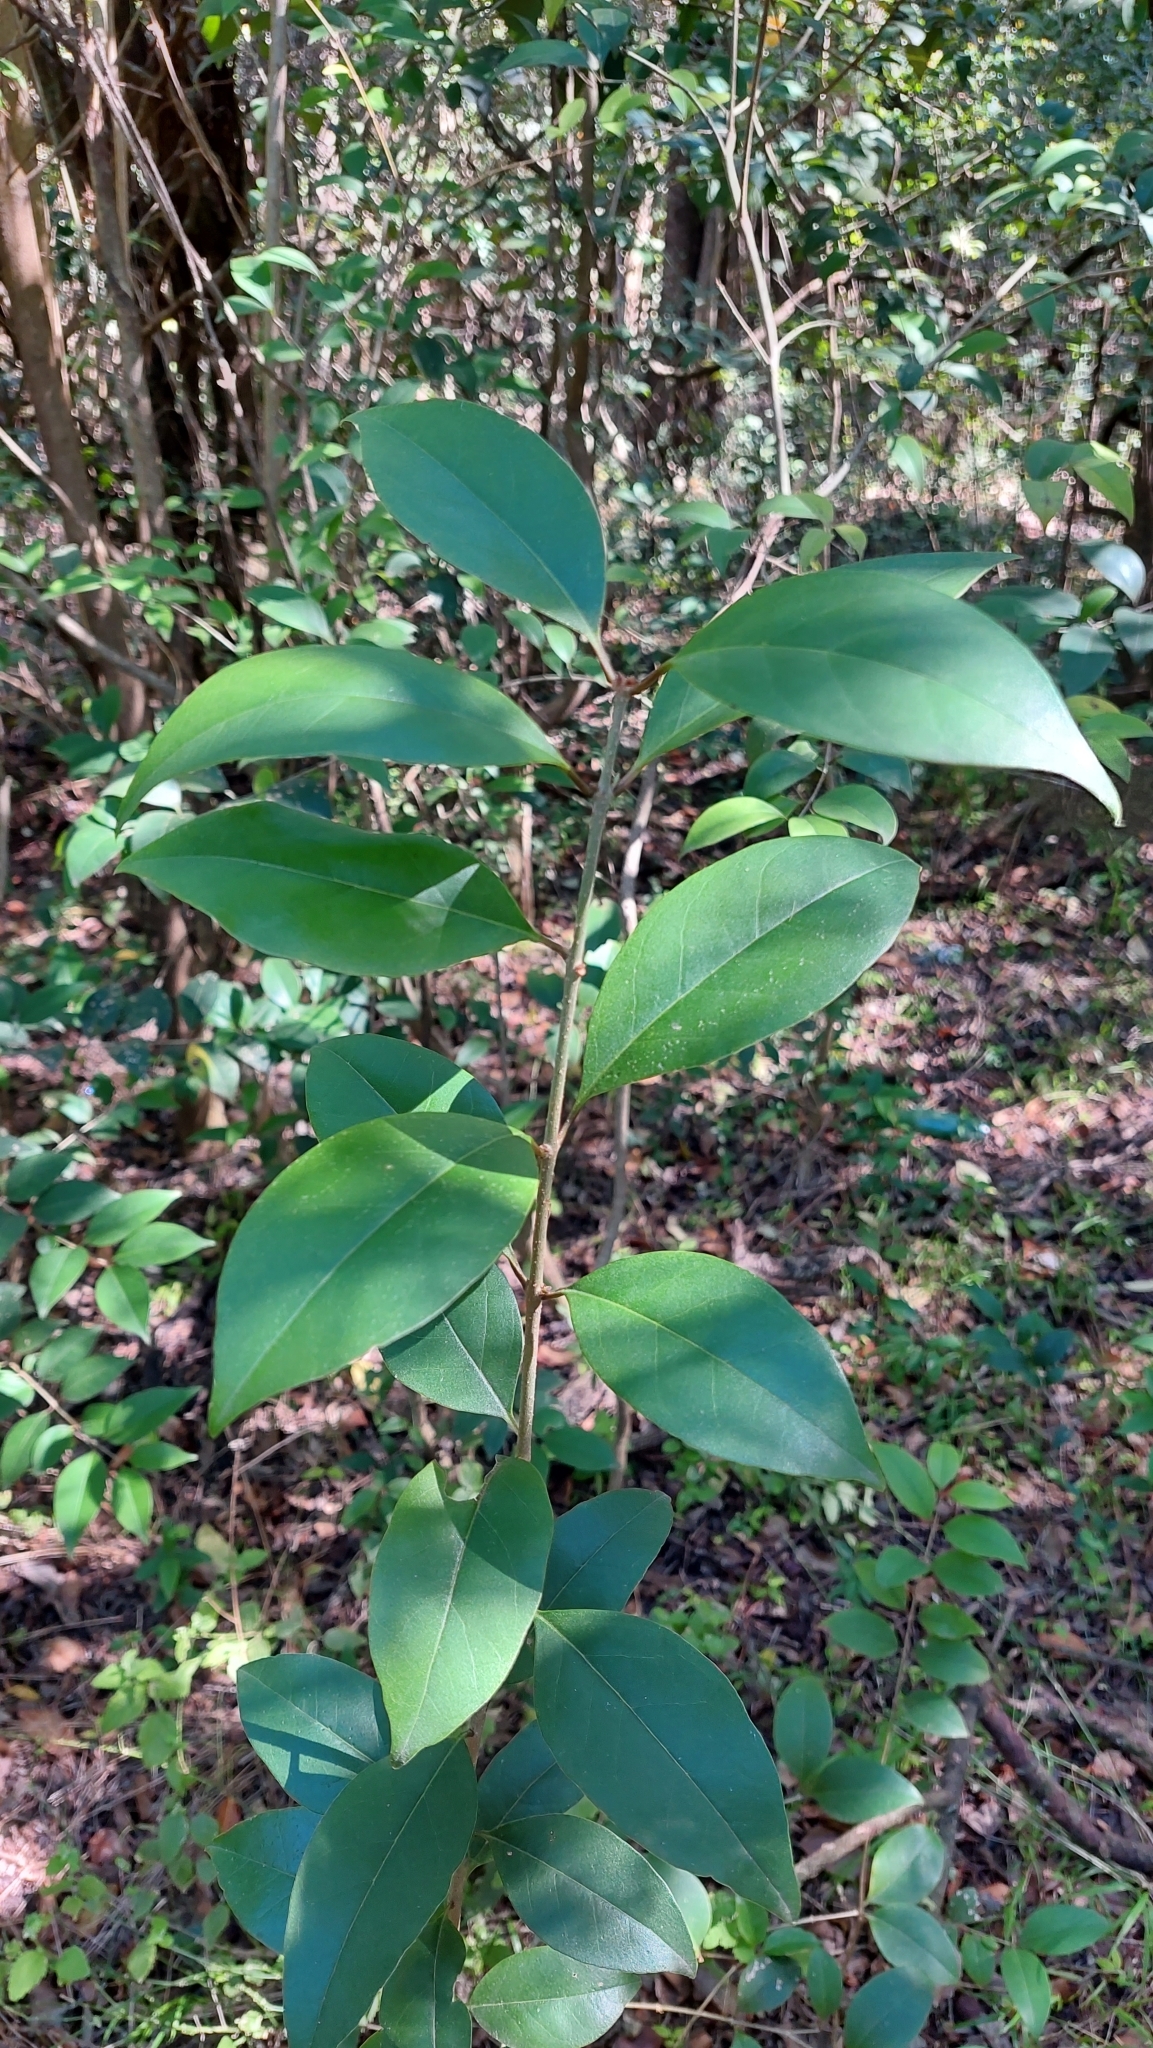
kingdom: Plantae
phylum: Tracheophyta
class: Magnoliopsida
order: Lamiales
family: Oleaceae
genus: Ligustrum
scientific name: Ligustrum lucidum
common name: Glossy privet
